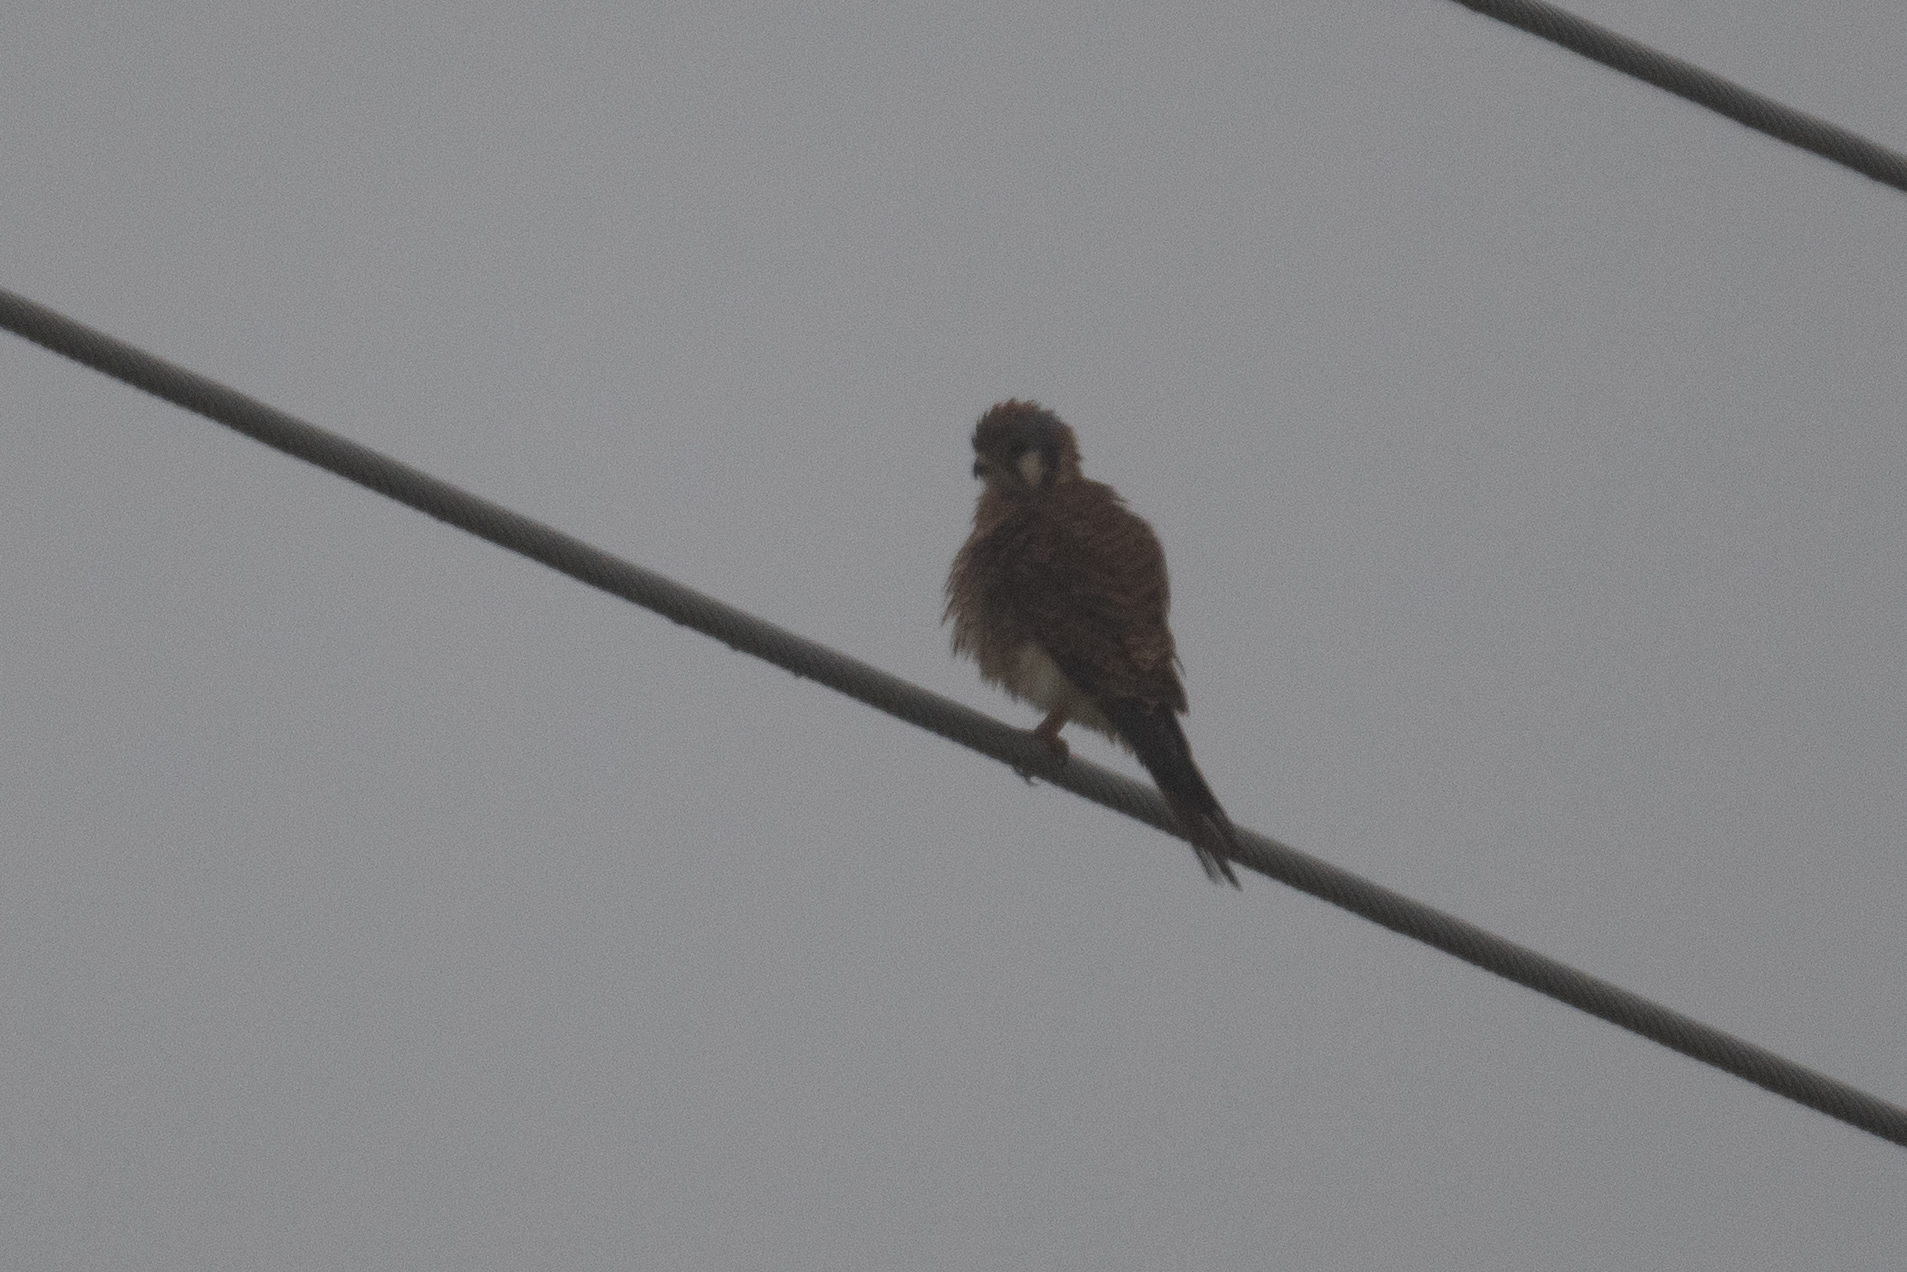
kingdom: Animalia
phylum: Chordata
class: Aves
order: Falconiformes
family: Falconidae
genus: Falco
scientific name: Falco sparverius
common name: American kestrel
